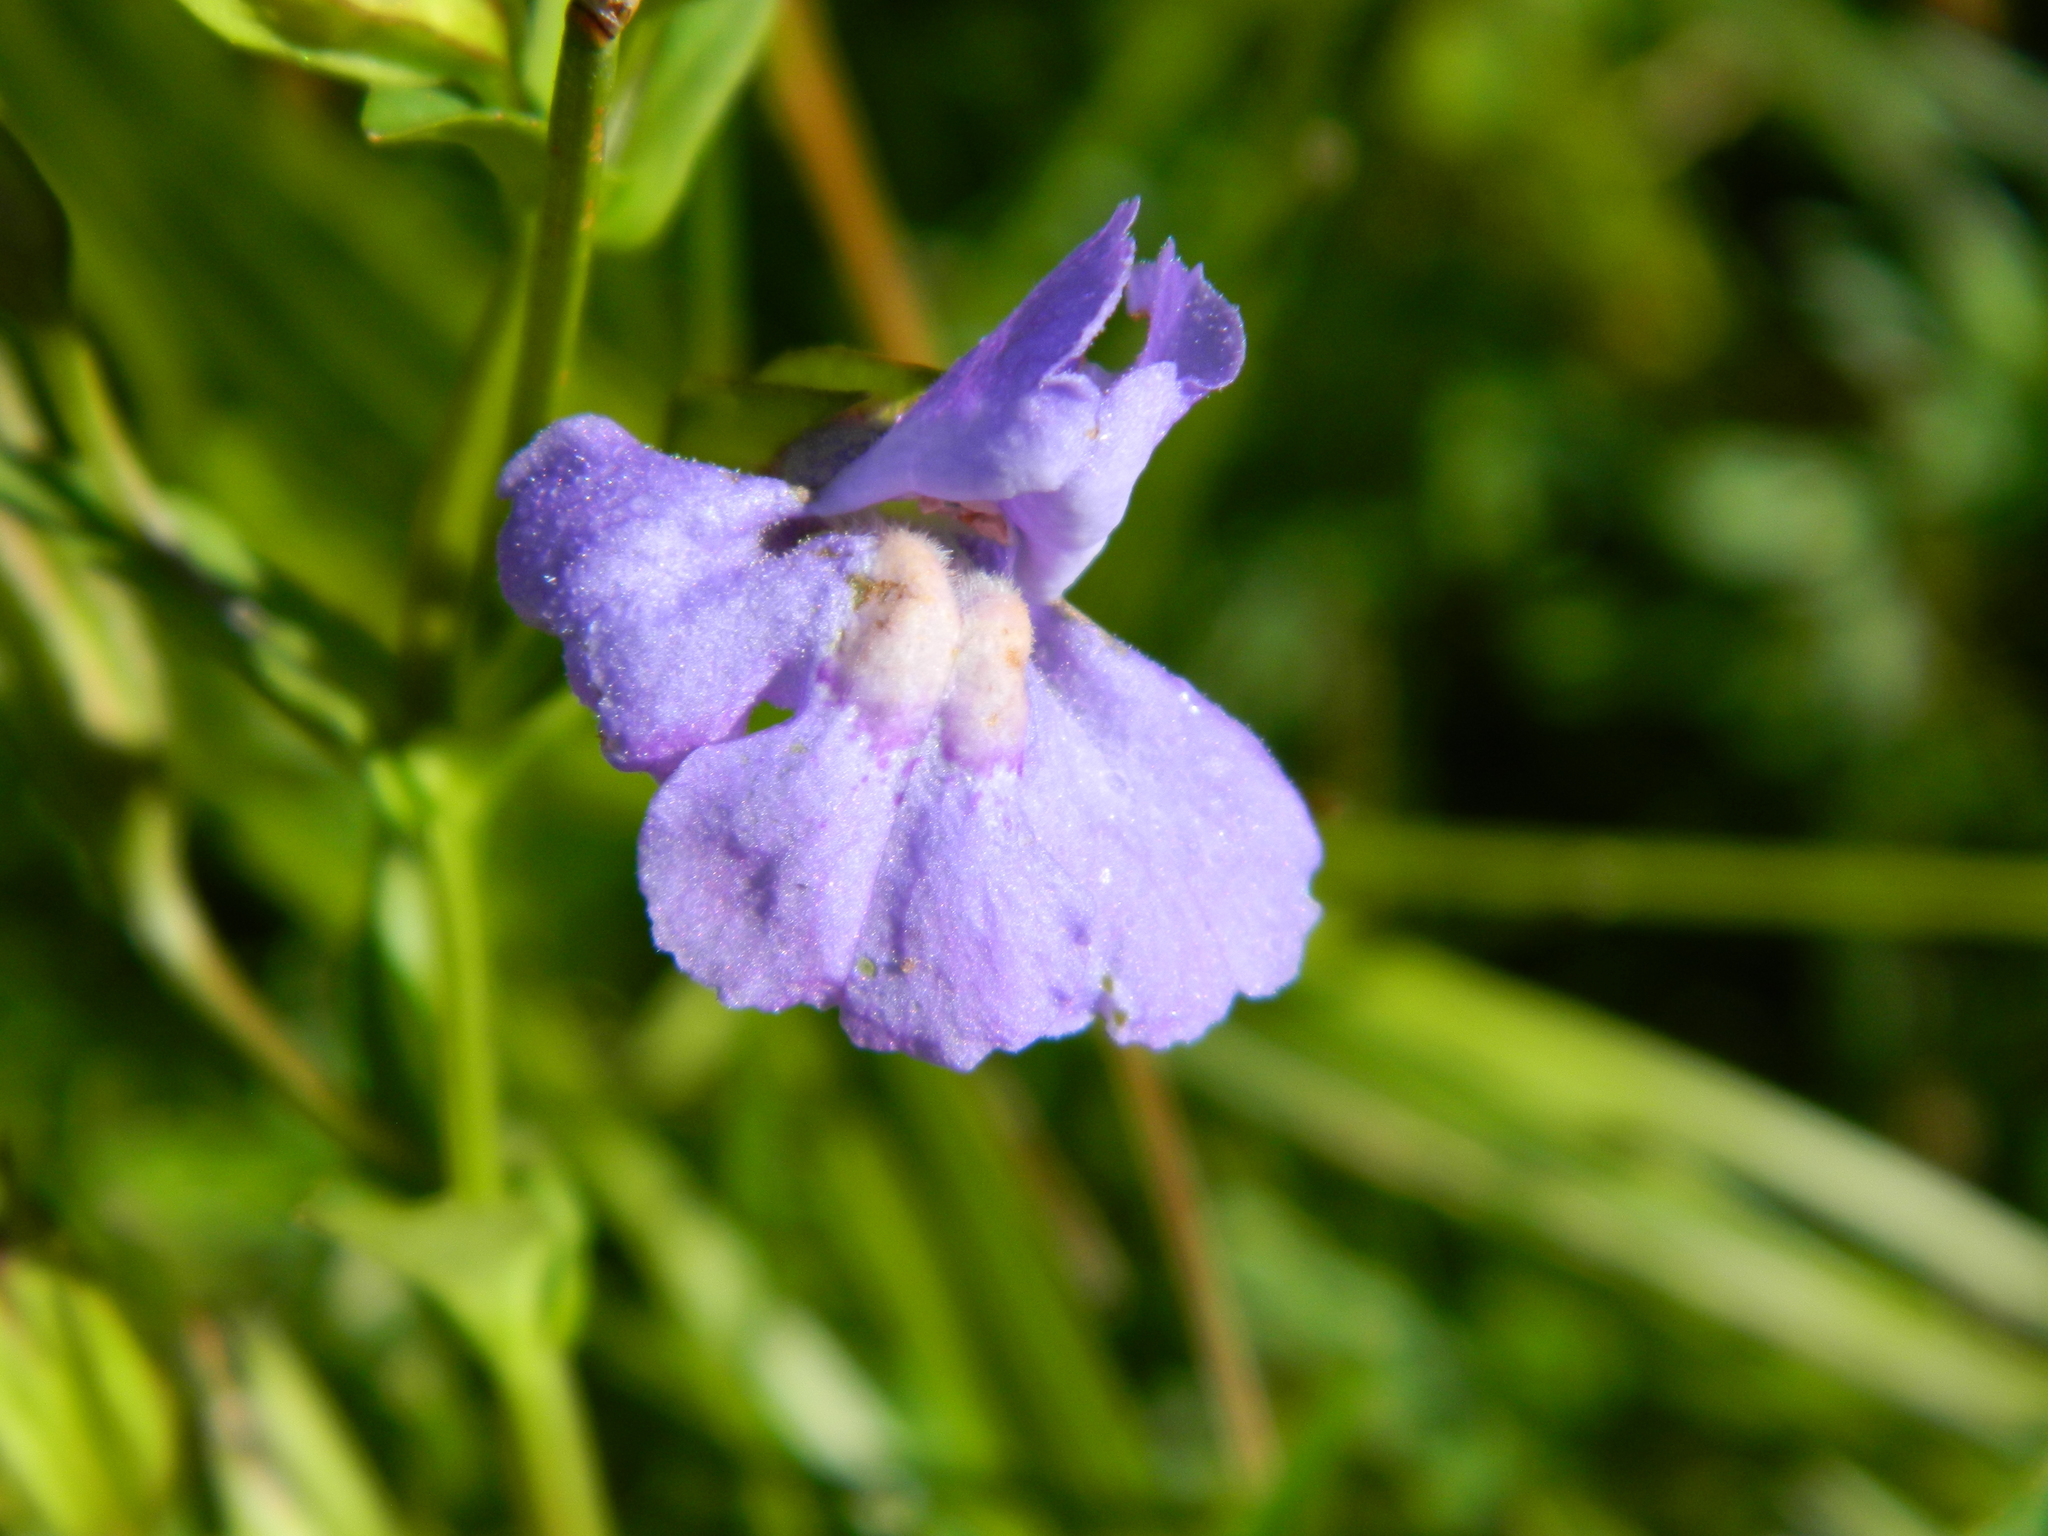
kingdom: Plantae
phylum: Tracheophyta
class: Magnoliopsida
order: Lamiales
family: Phrymaceae
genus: Mimulus
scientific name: Mimulus ringens
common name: Allegheny monkeyflower
